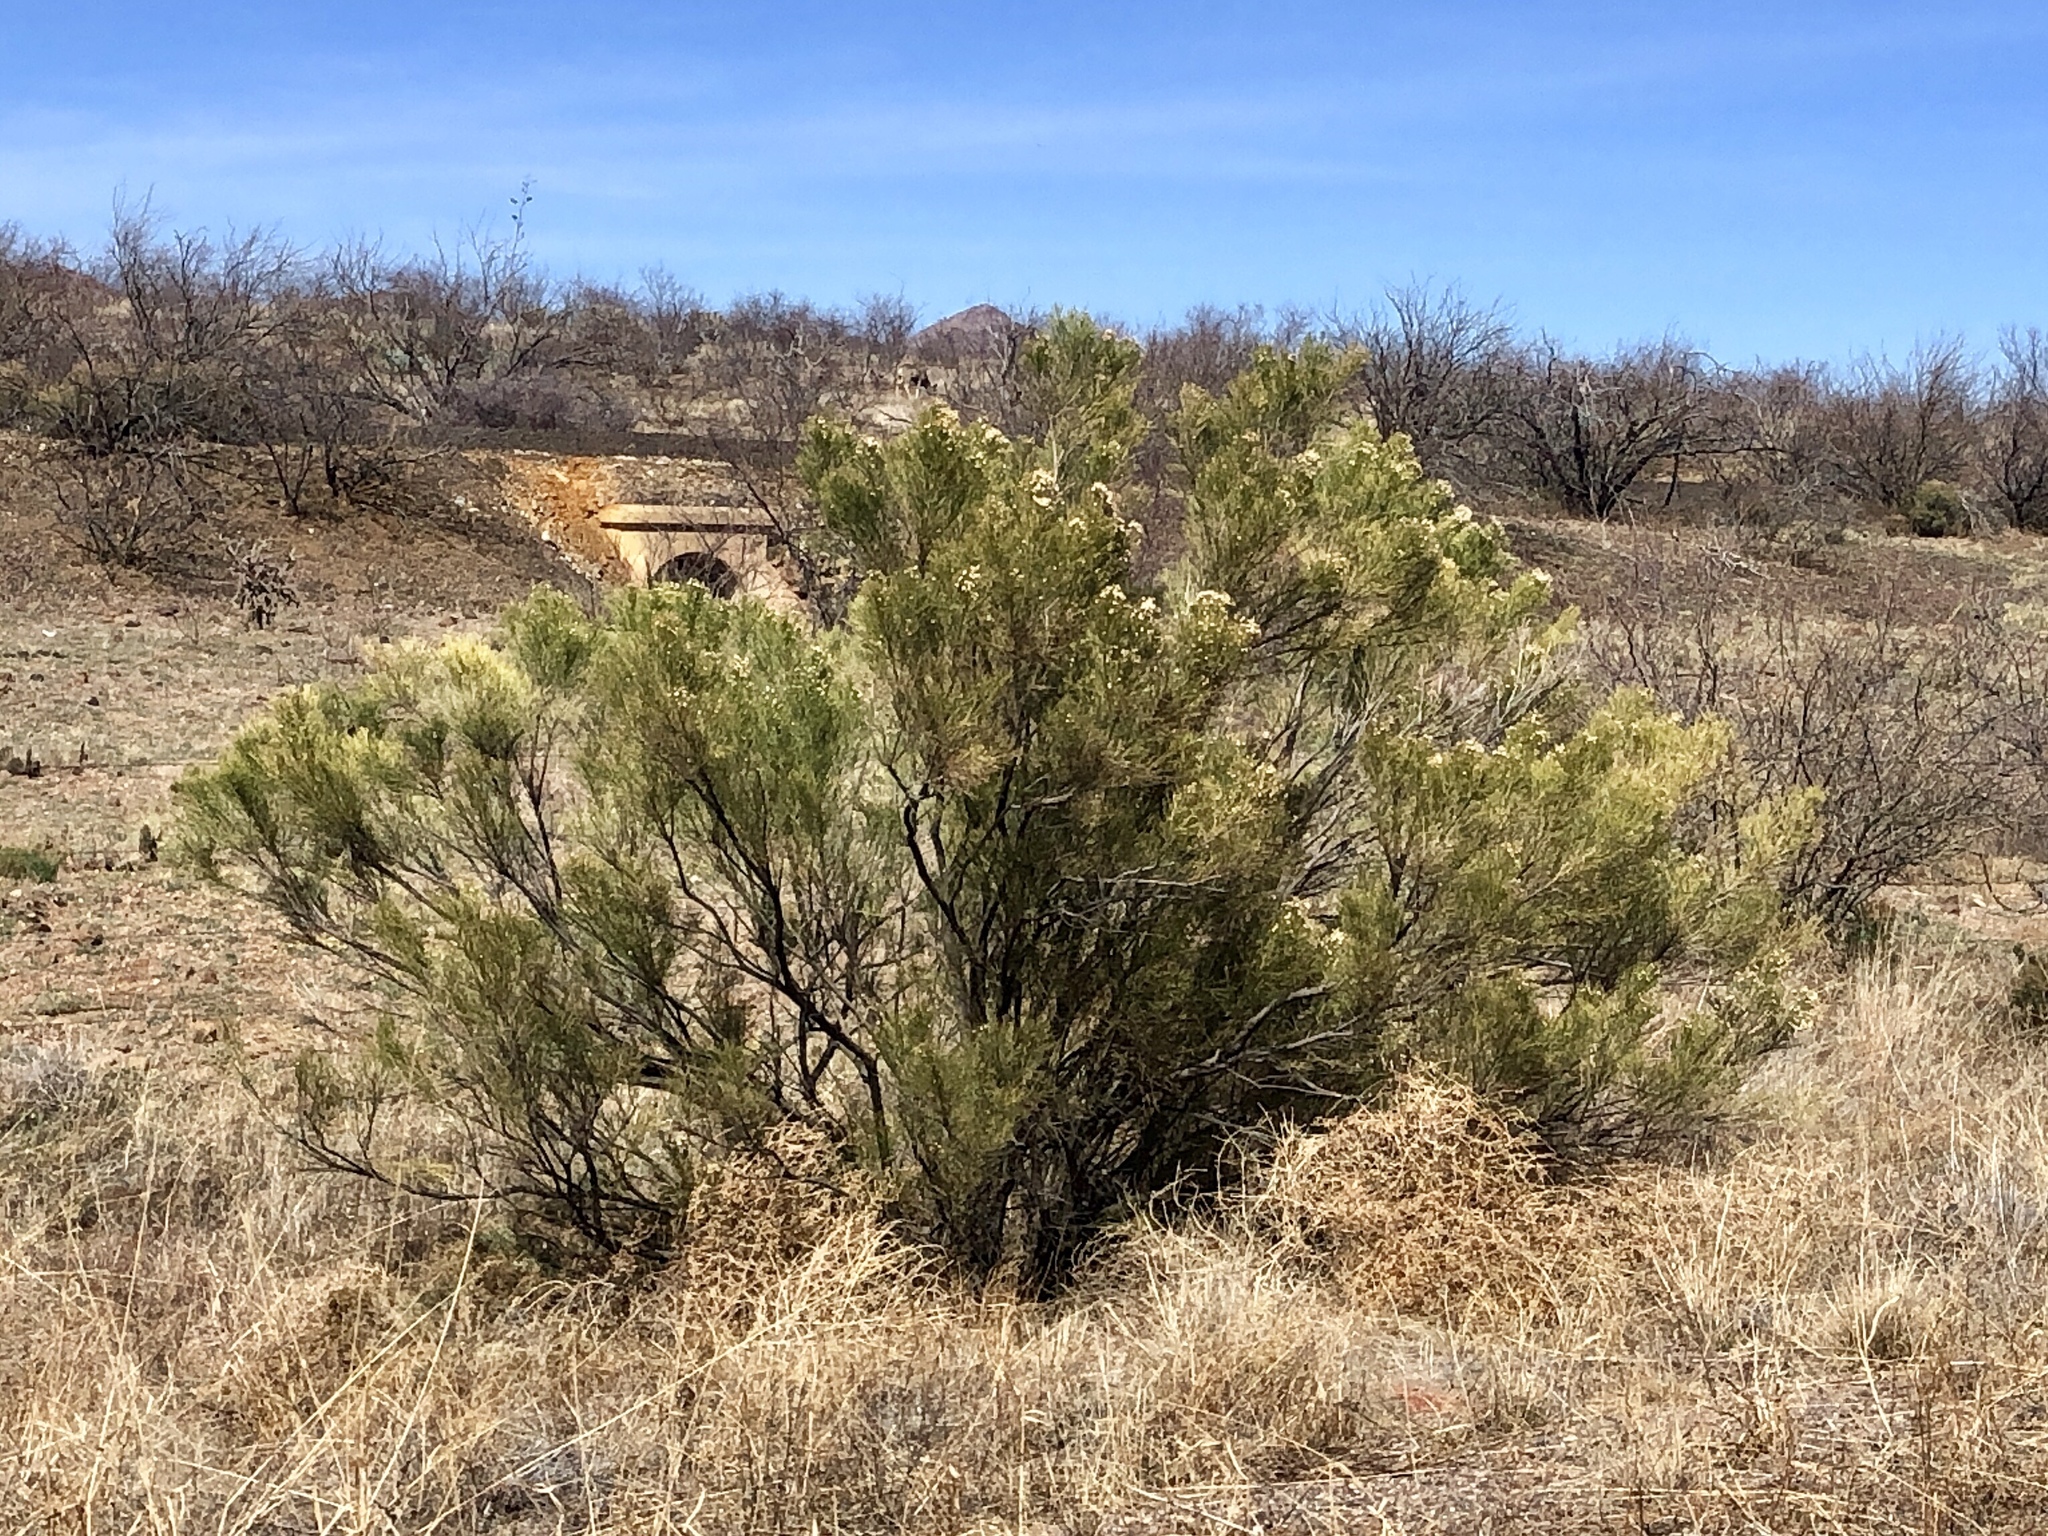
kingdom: Plantae
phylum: Tracheophyta
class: Magnoliopsida
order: Asterales
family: Asteraceae
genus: Baccharis
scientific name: Baccharis sarothroides
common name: Desert-broom
